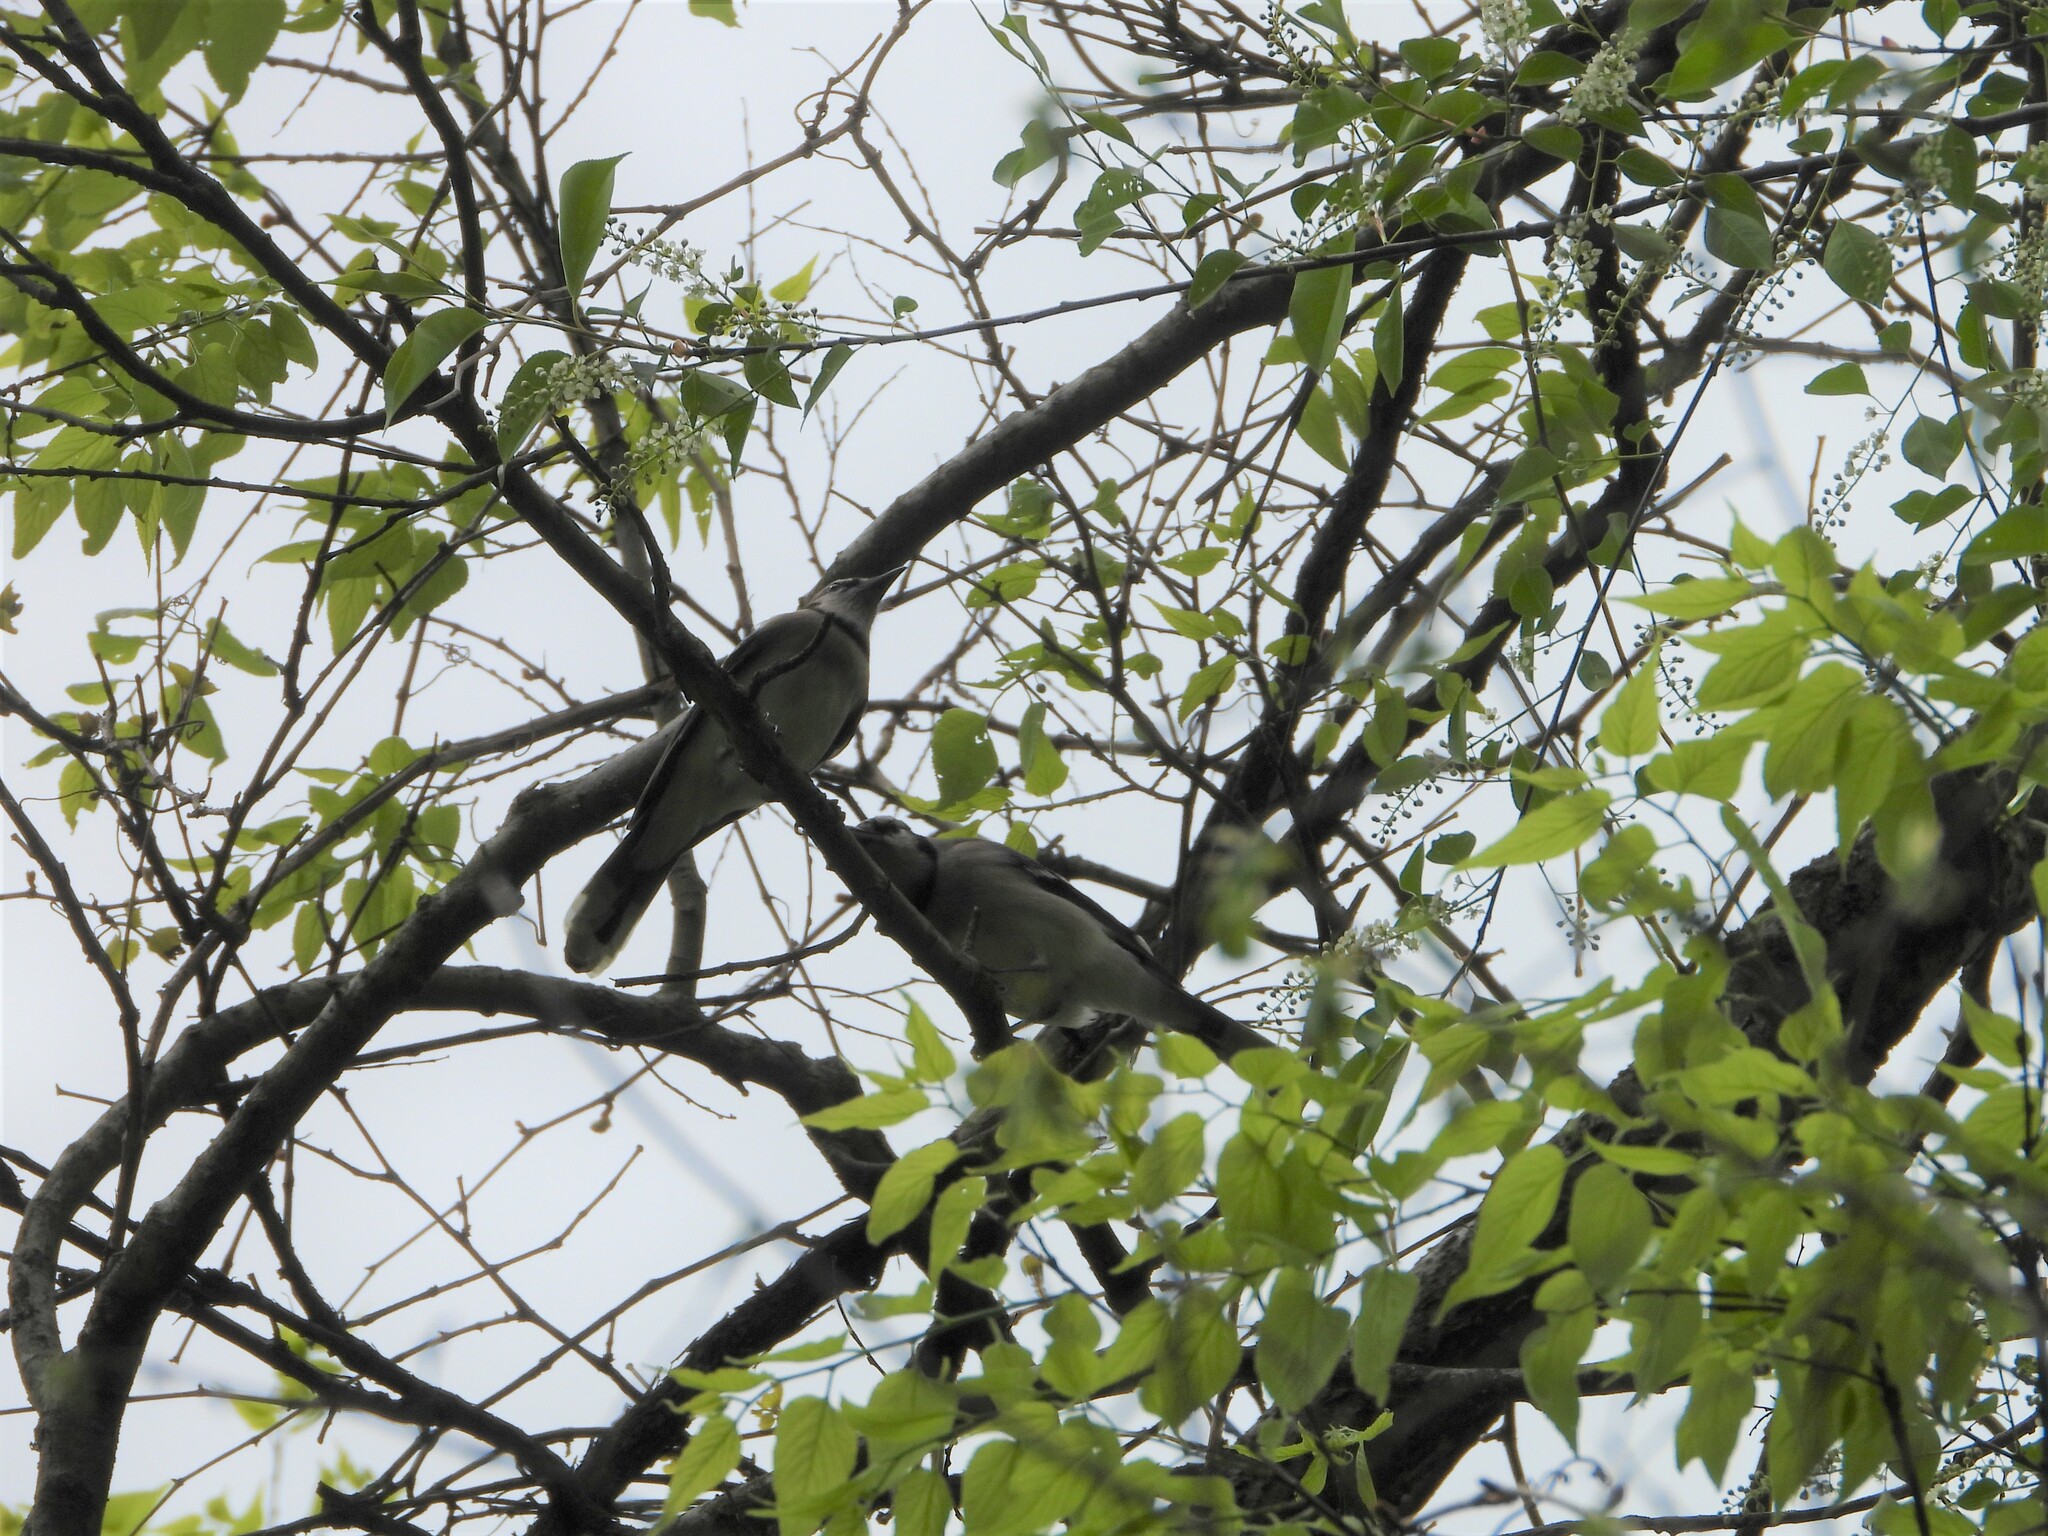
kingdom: Animalia
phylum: Chordata
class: Aves
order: Passeriformes
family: Corvidae
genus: Cyanocitta
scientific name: Cyanocitta cristata
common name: Blue jay
